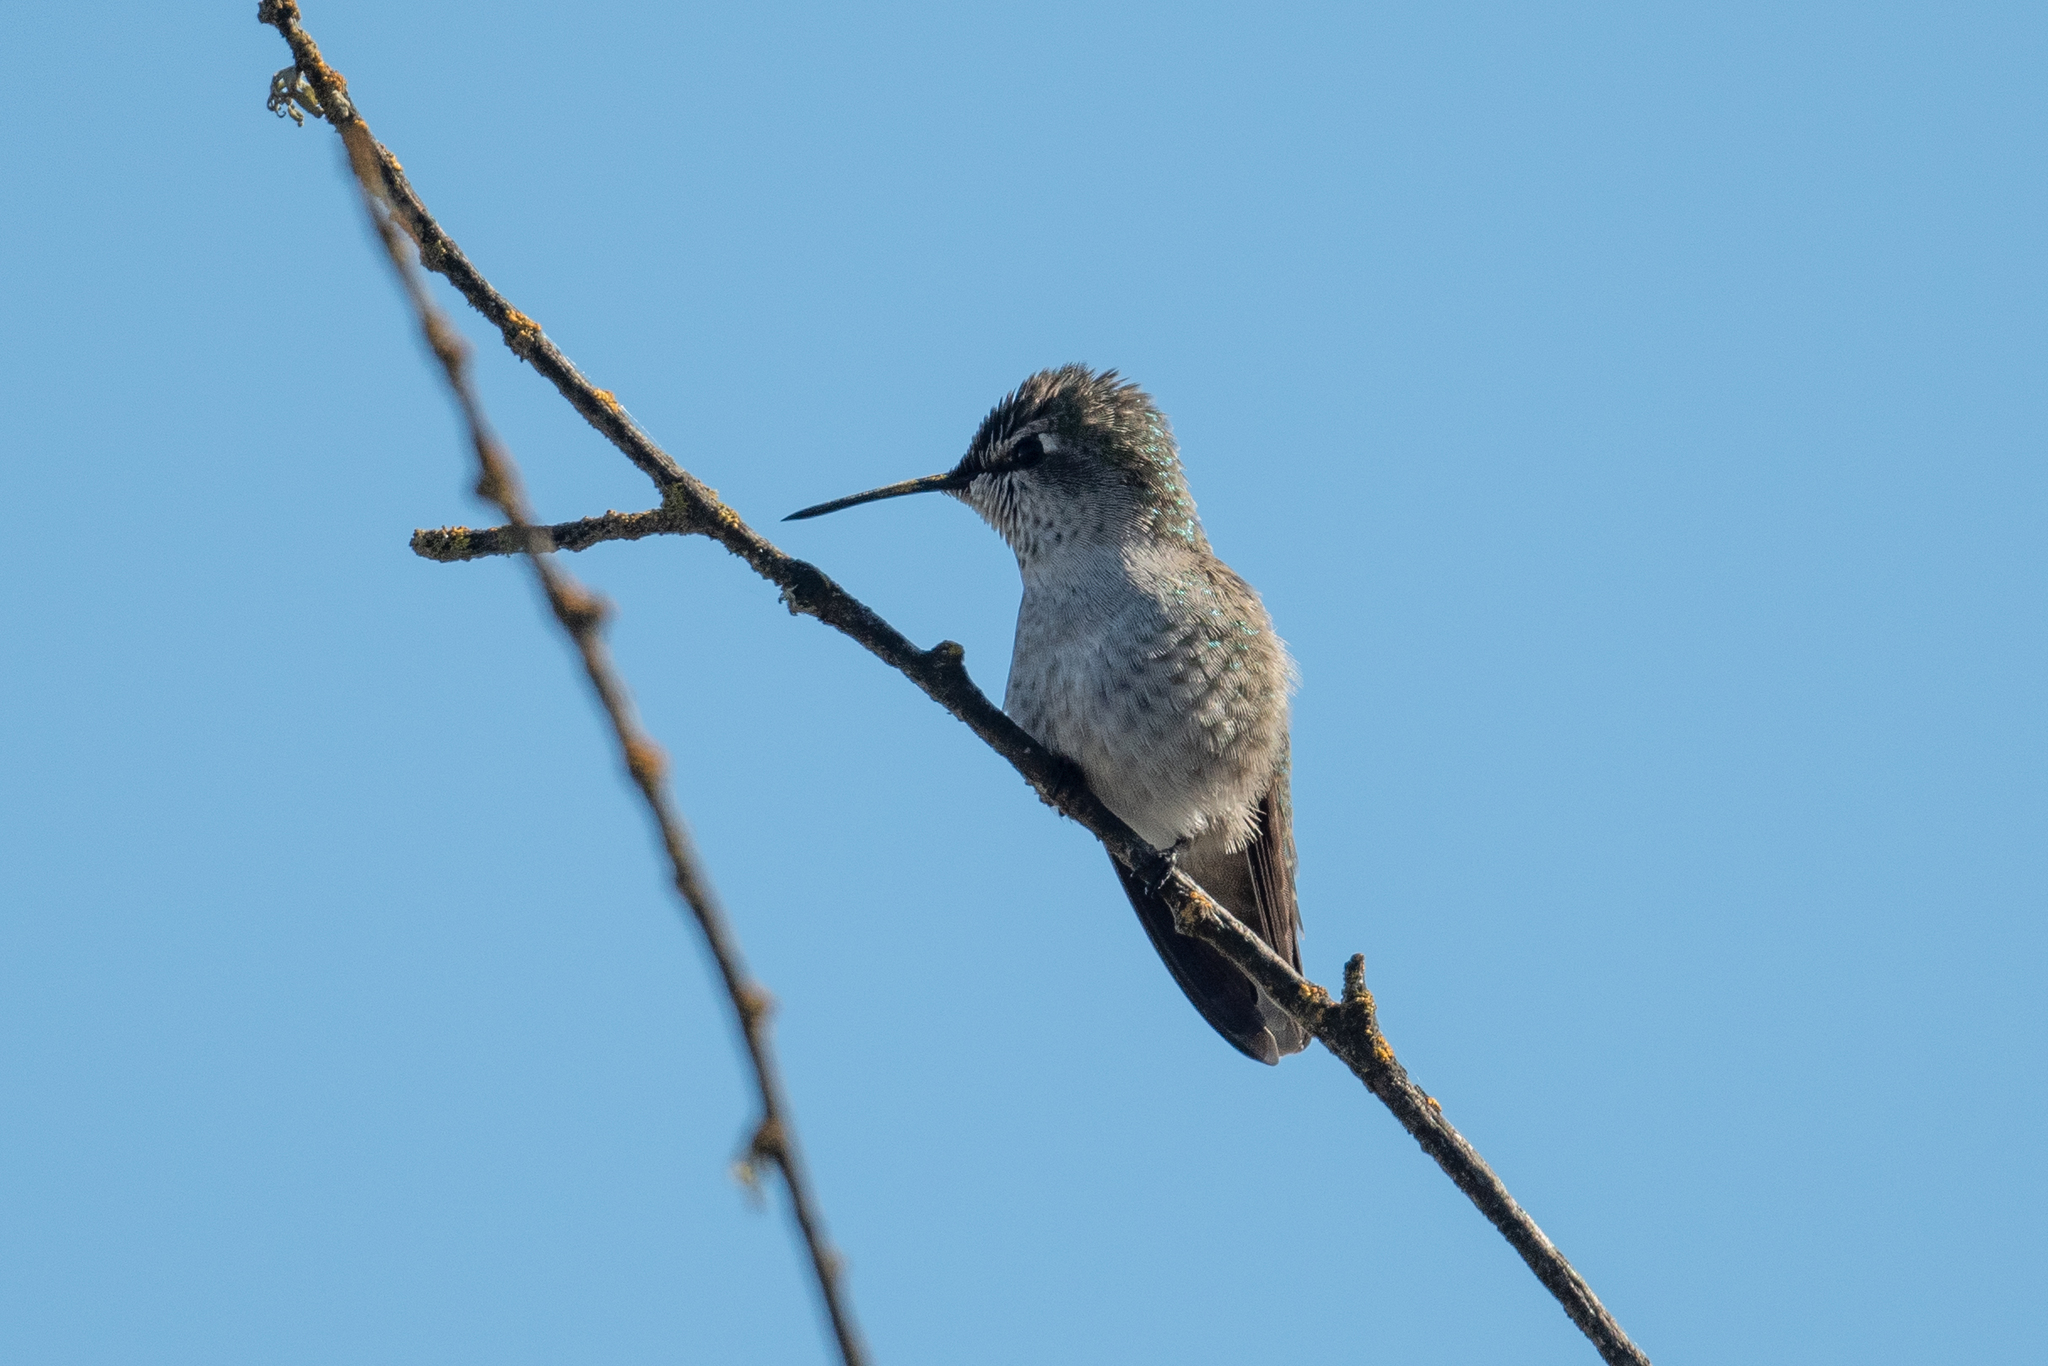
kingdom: Animalia
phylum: Chordata
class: Aves
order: Apodiformes
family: Trochilidae
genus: Calypte
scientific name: Calypte anna
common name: Anna's hummingbird
